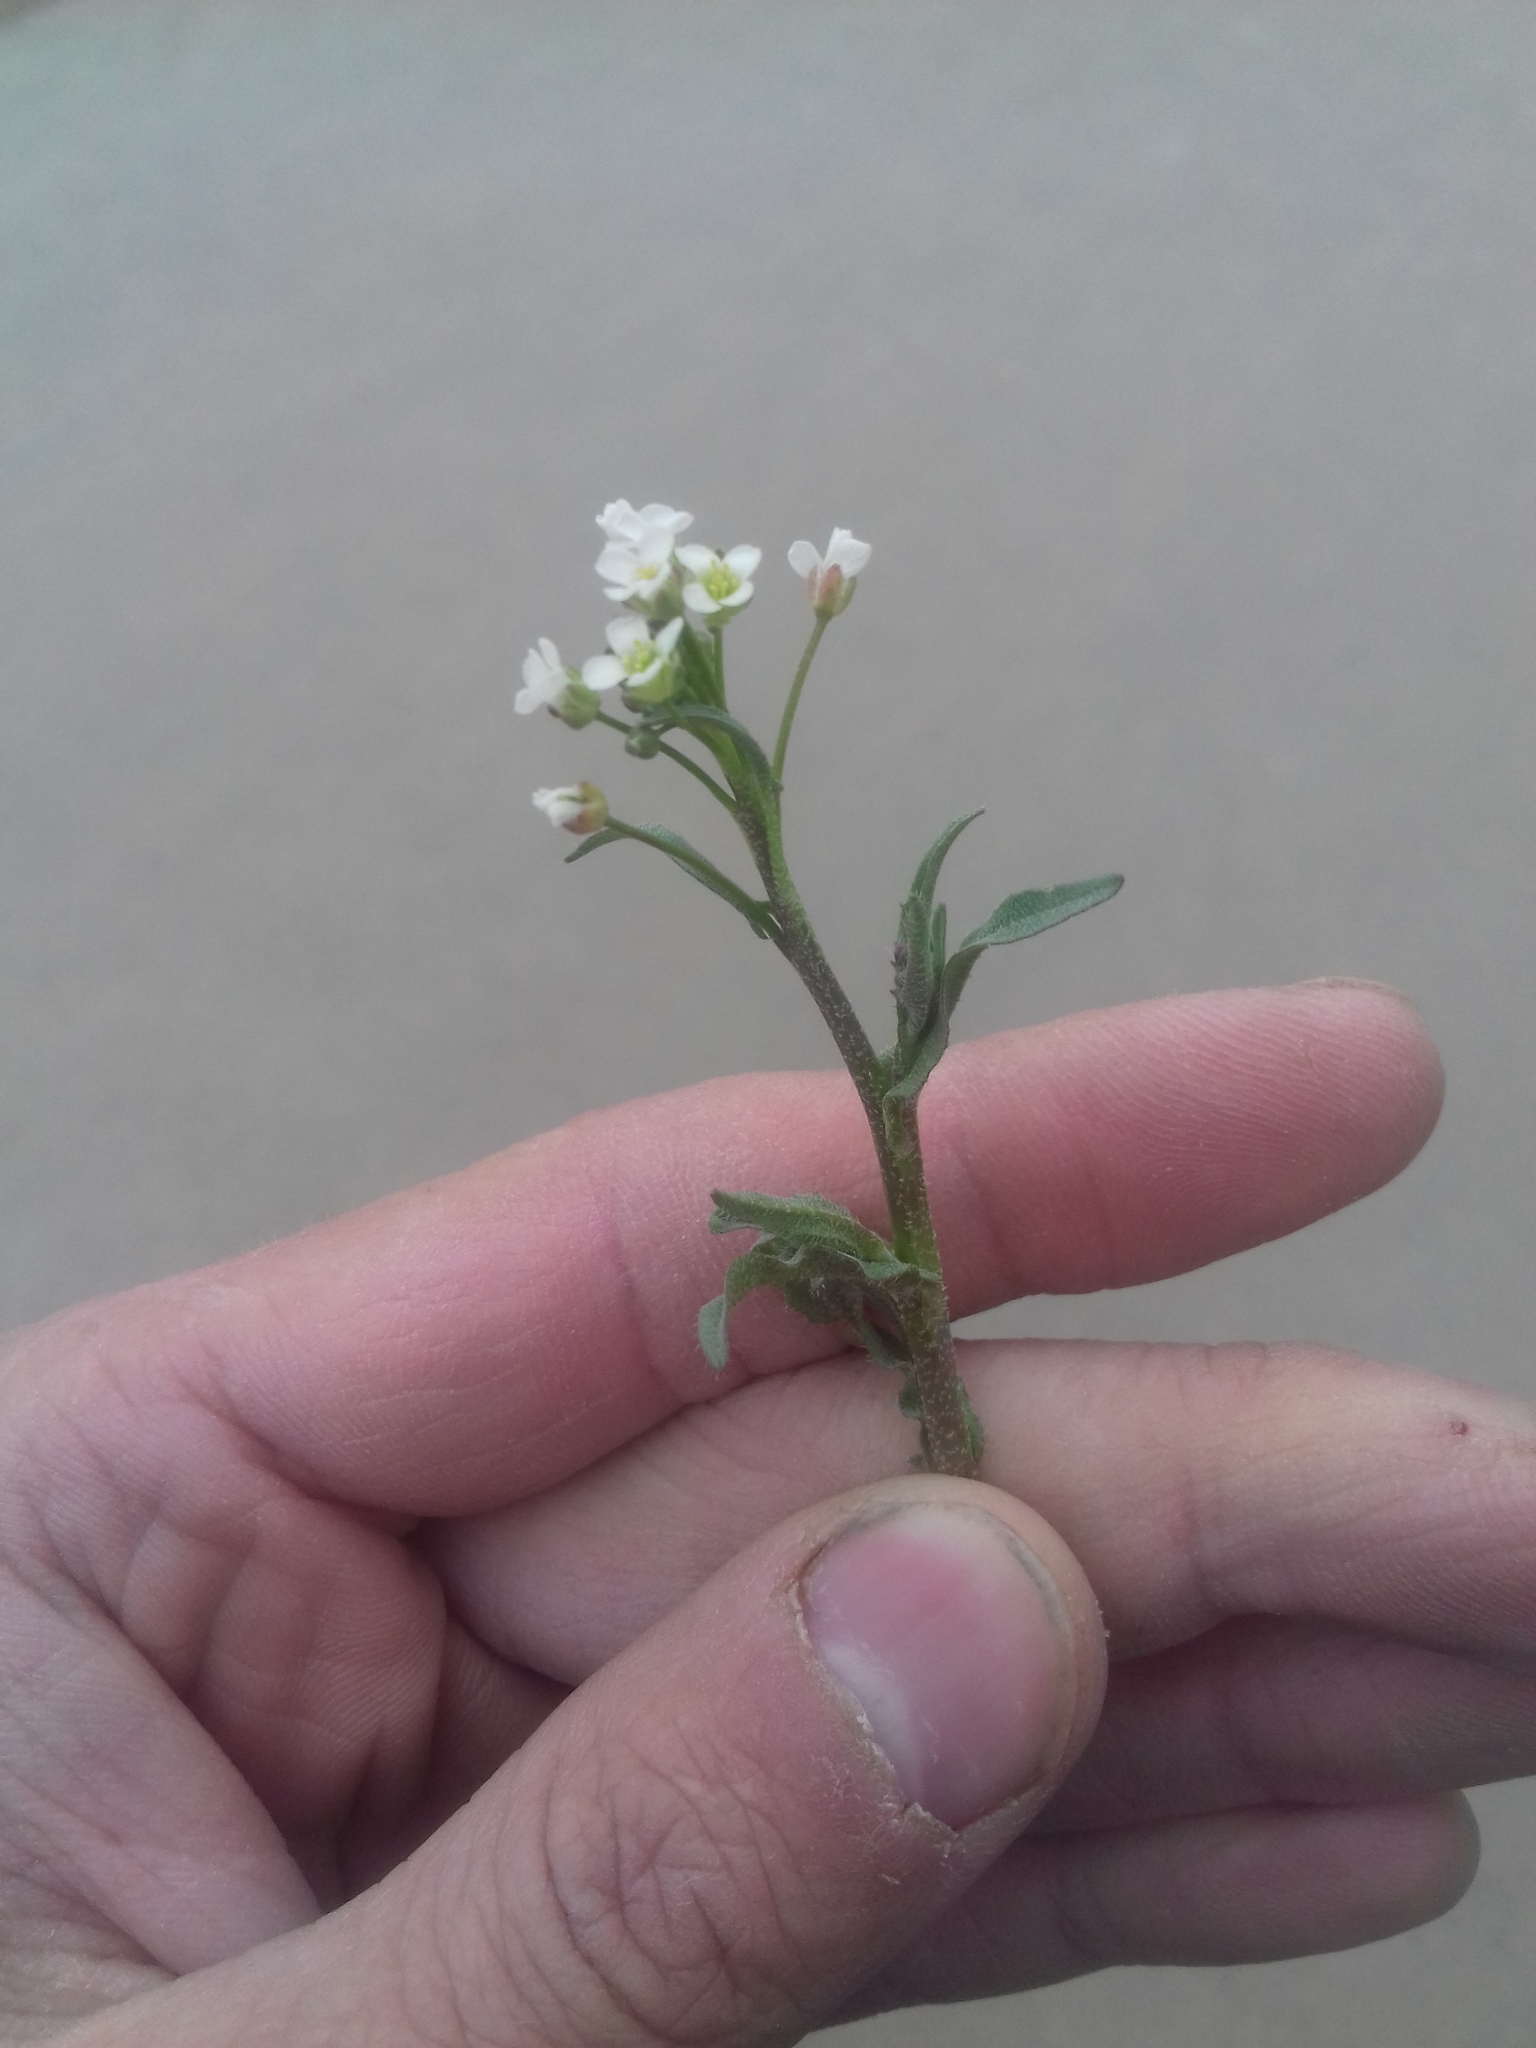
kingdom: Plantae
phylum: Tracheophyta
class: Magnoliopsida
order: Brassicales
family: Brassicaceae
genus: Capsella
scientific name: Capsella bursa-pastoris
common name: Shepherd's purse
